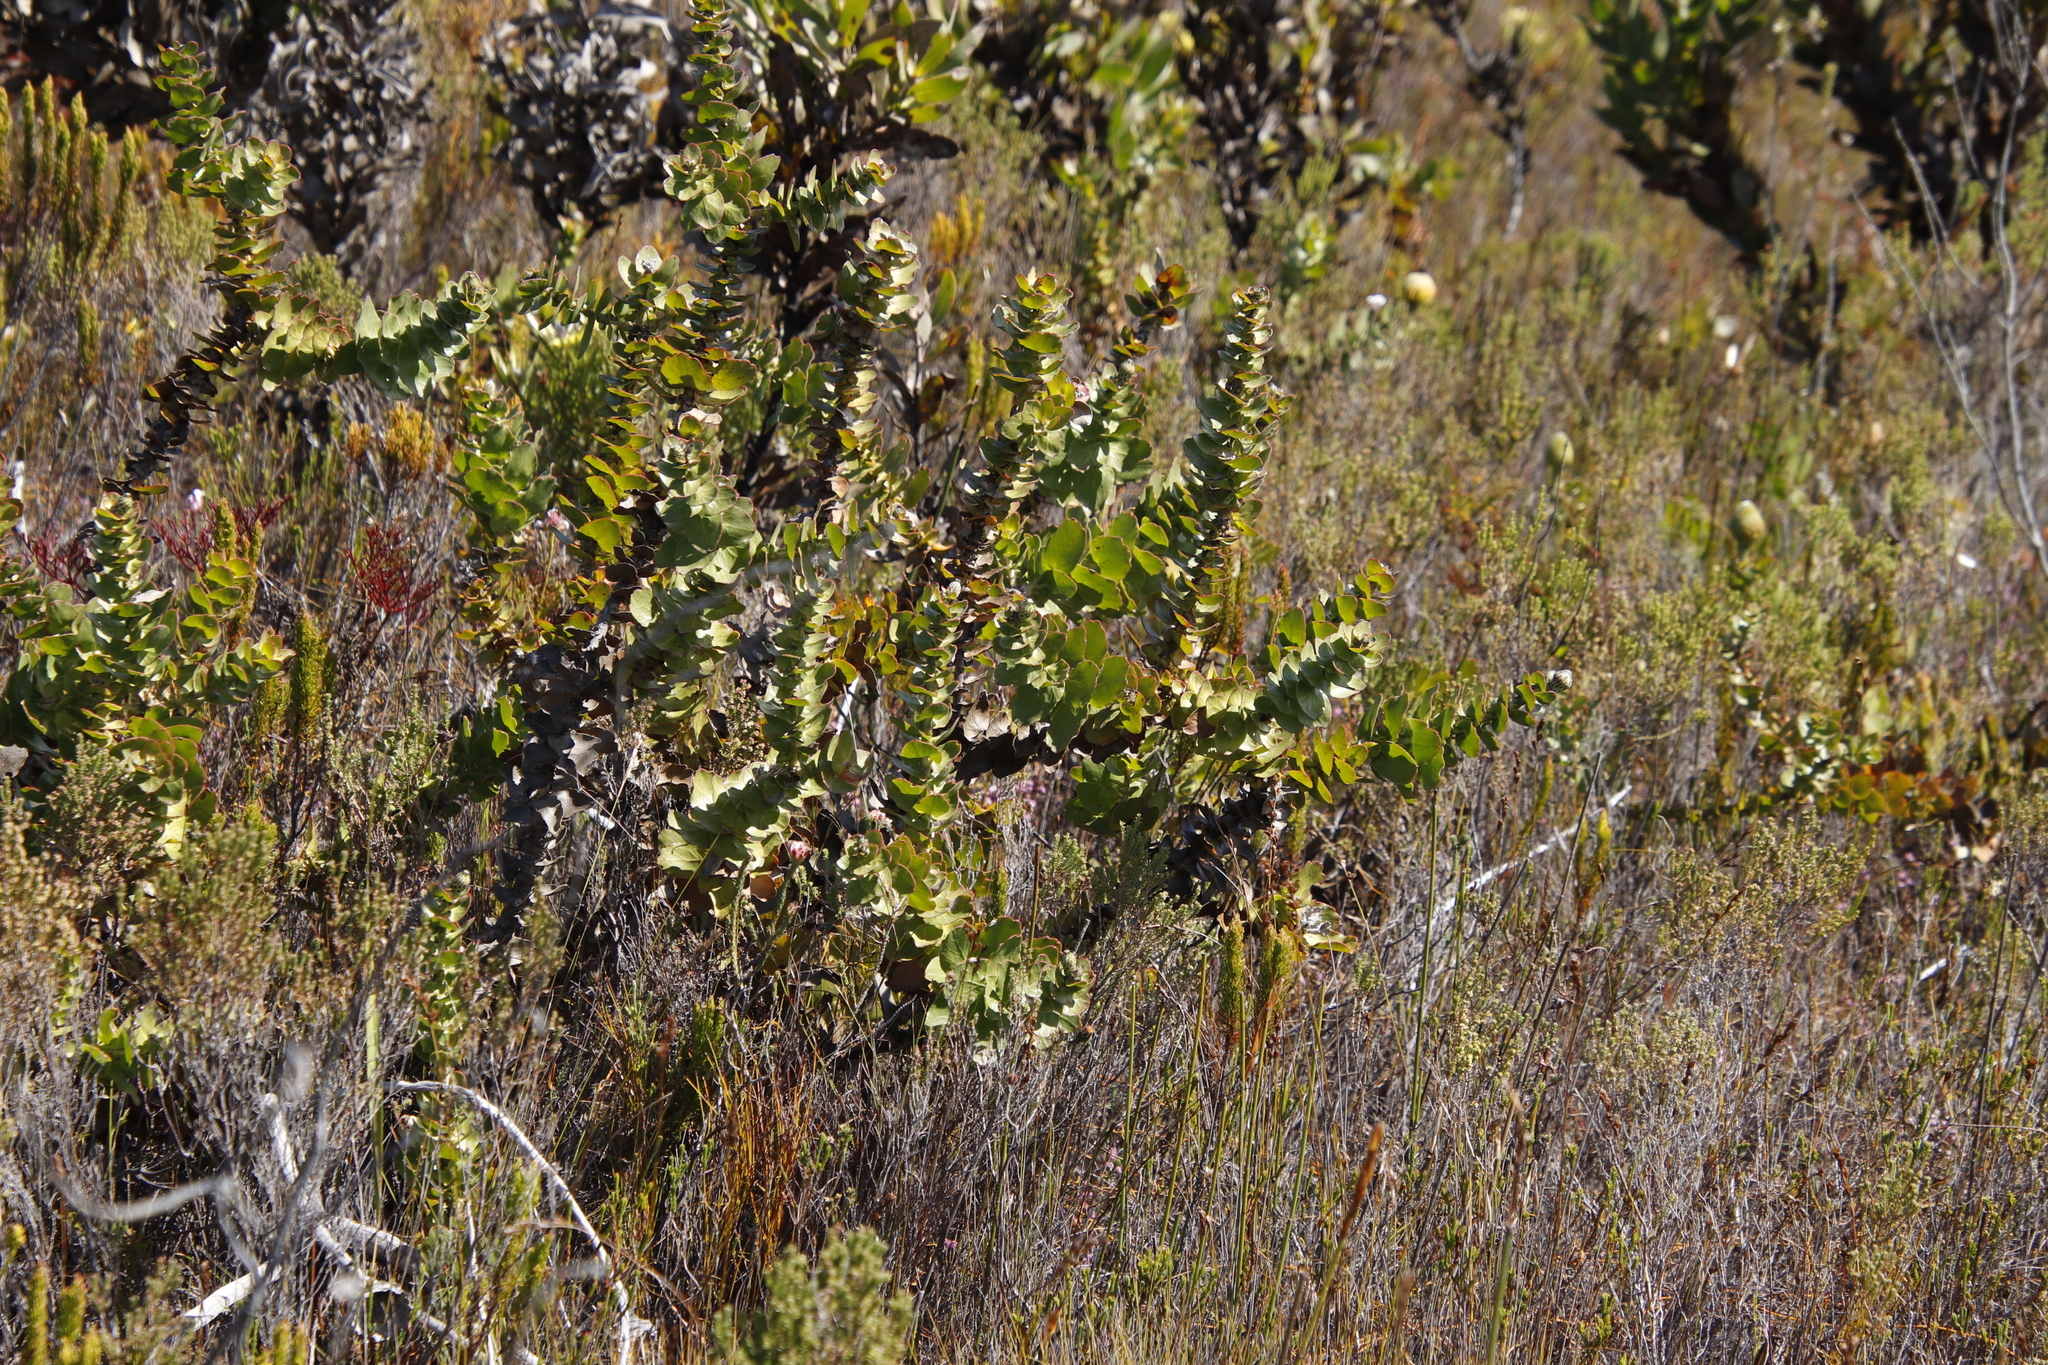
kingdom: Plantae
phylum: Tracheophyta
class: Magnoliopsida
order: Proteales
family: Proteaceae
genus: Leucospermum
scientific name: Leucospermum cordifolium
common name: Red pincushion-protea
